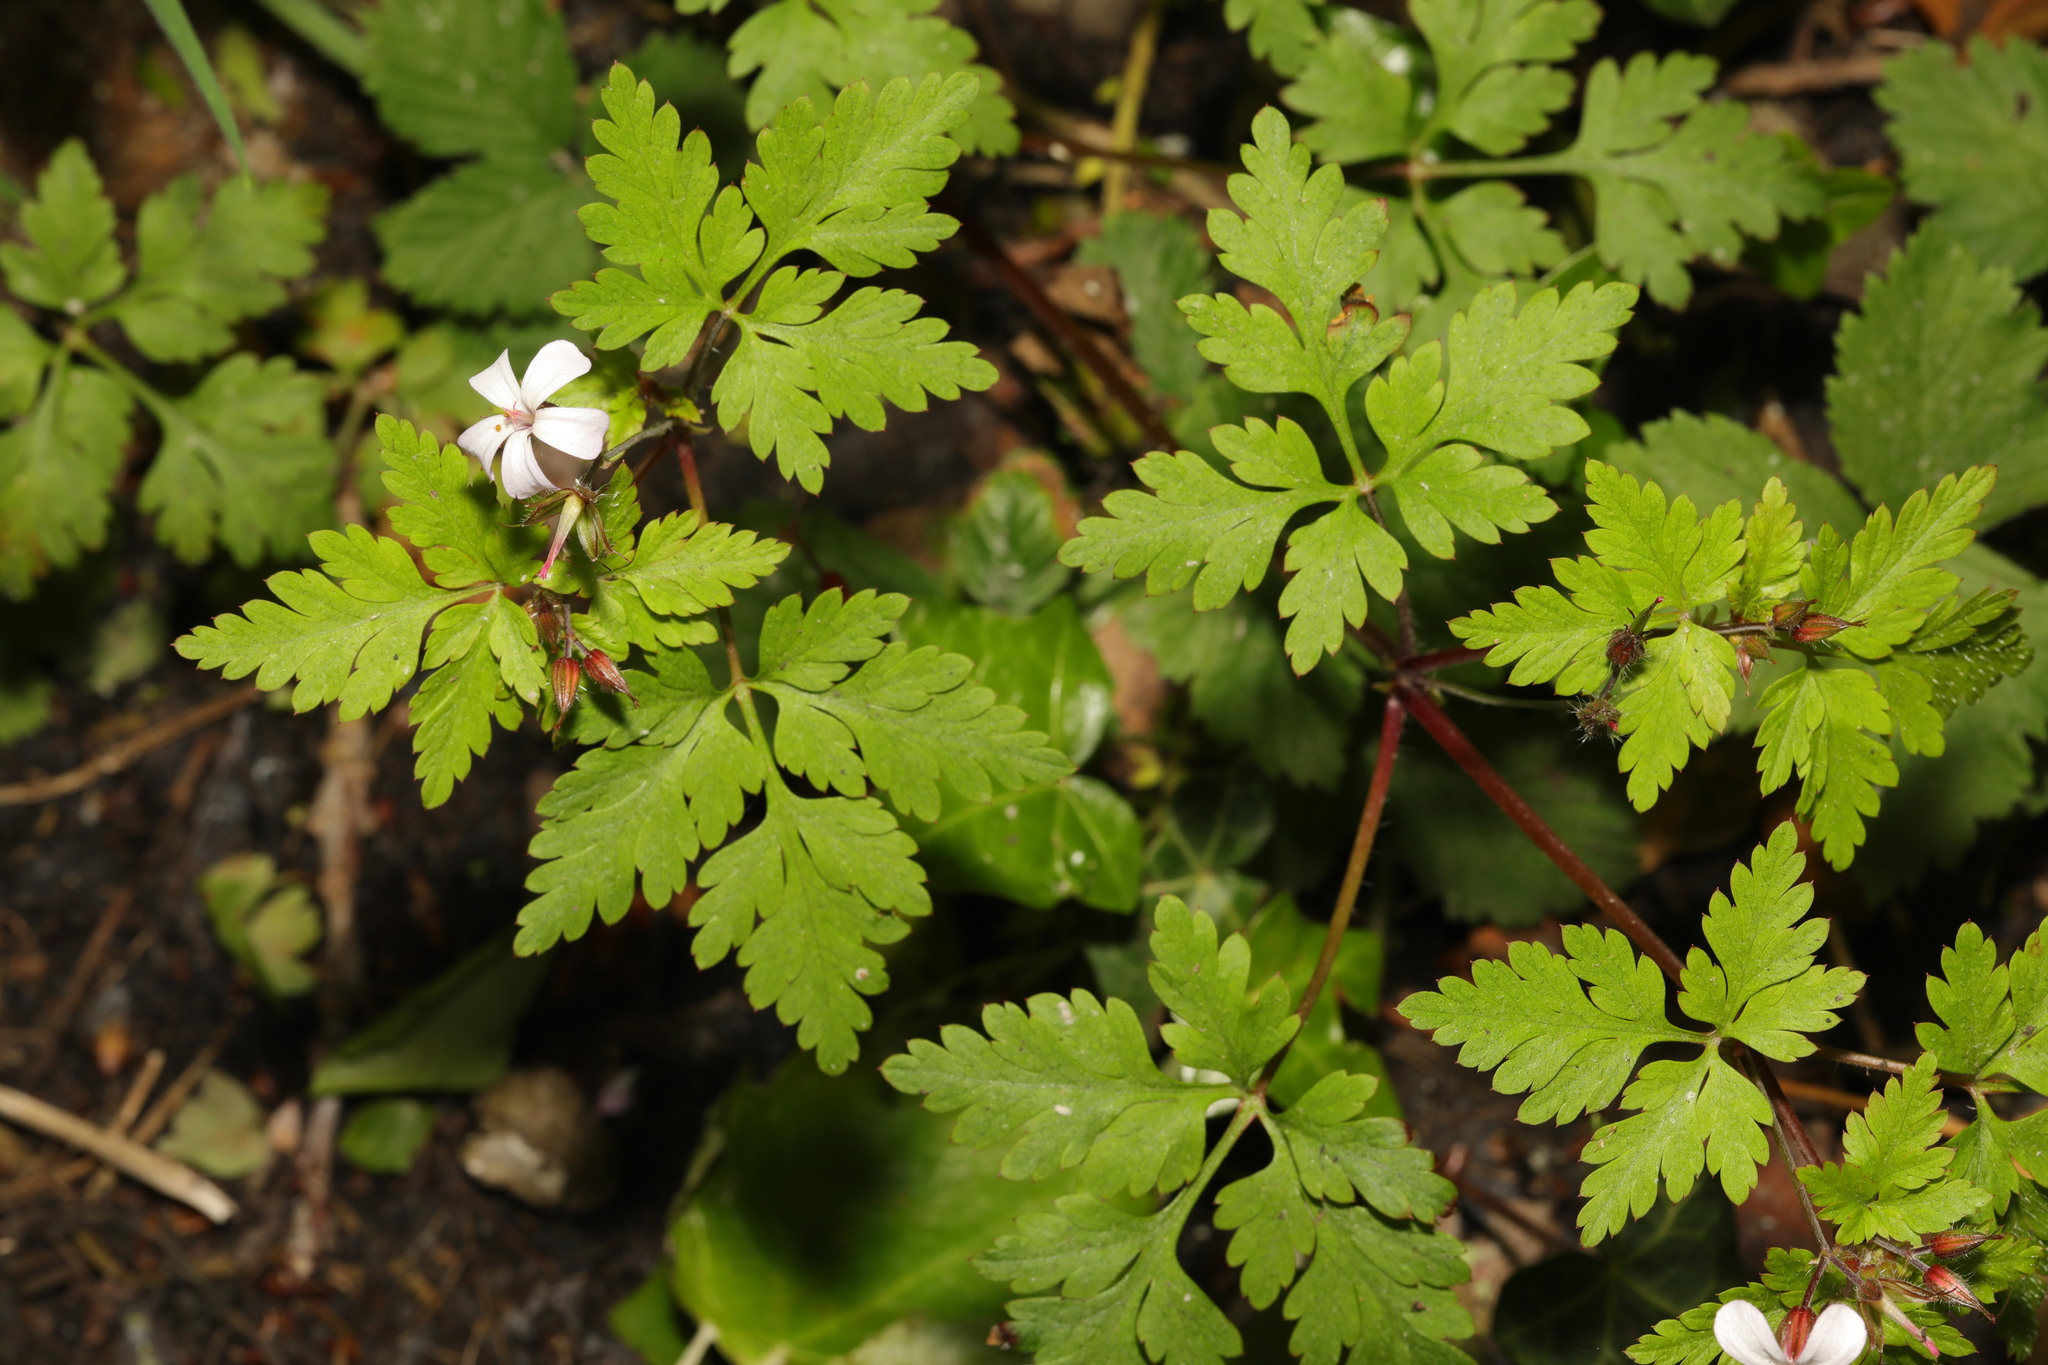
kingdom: Plantae
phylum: Tracheophyta
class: Magnoliopsida
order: Geraniales
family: Geraniaceae
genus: Geranium
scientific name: Geranium robertianum
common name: Herb-robert
